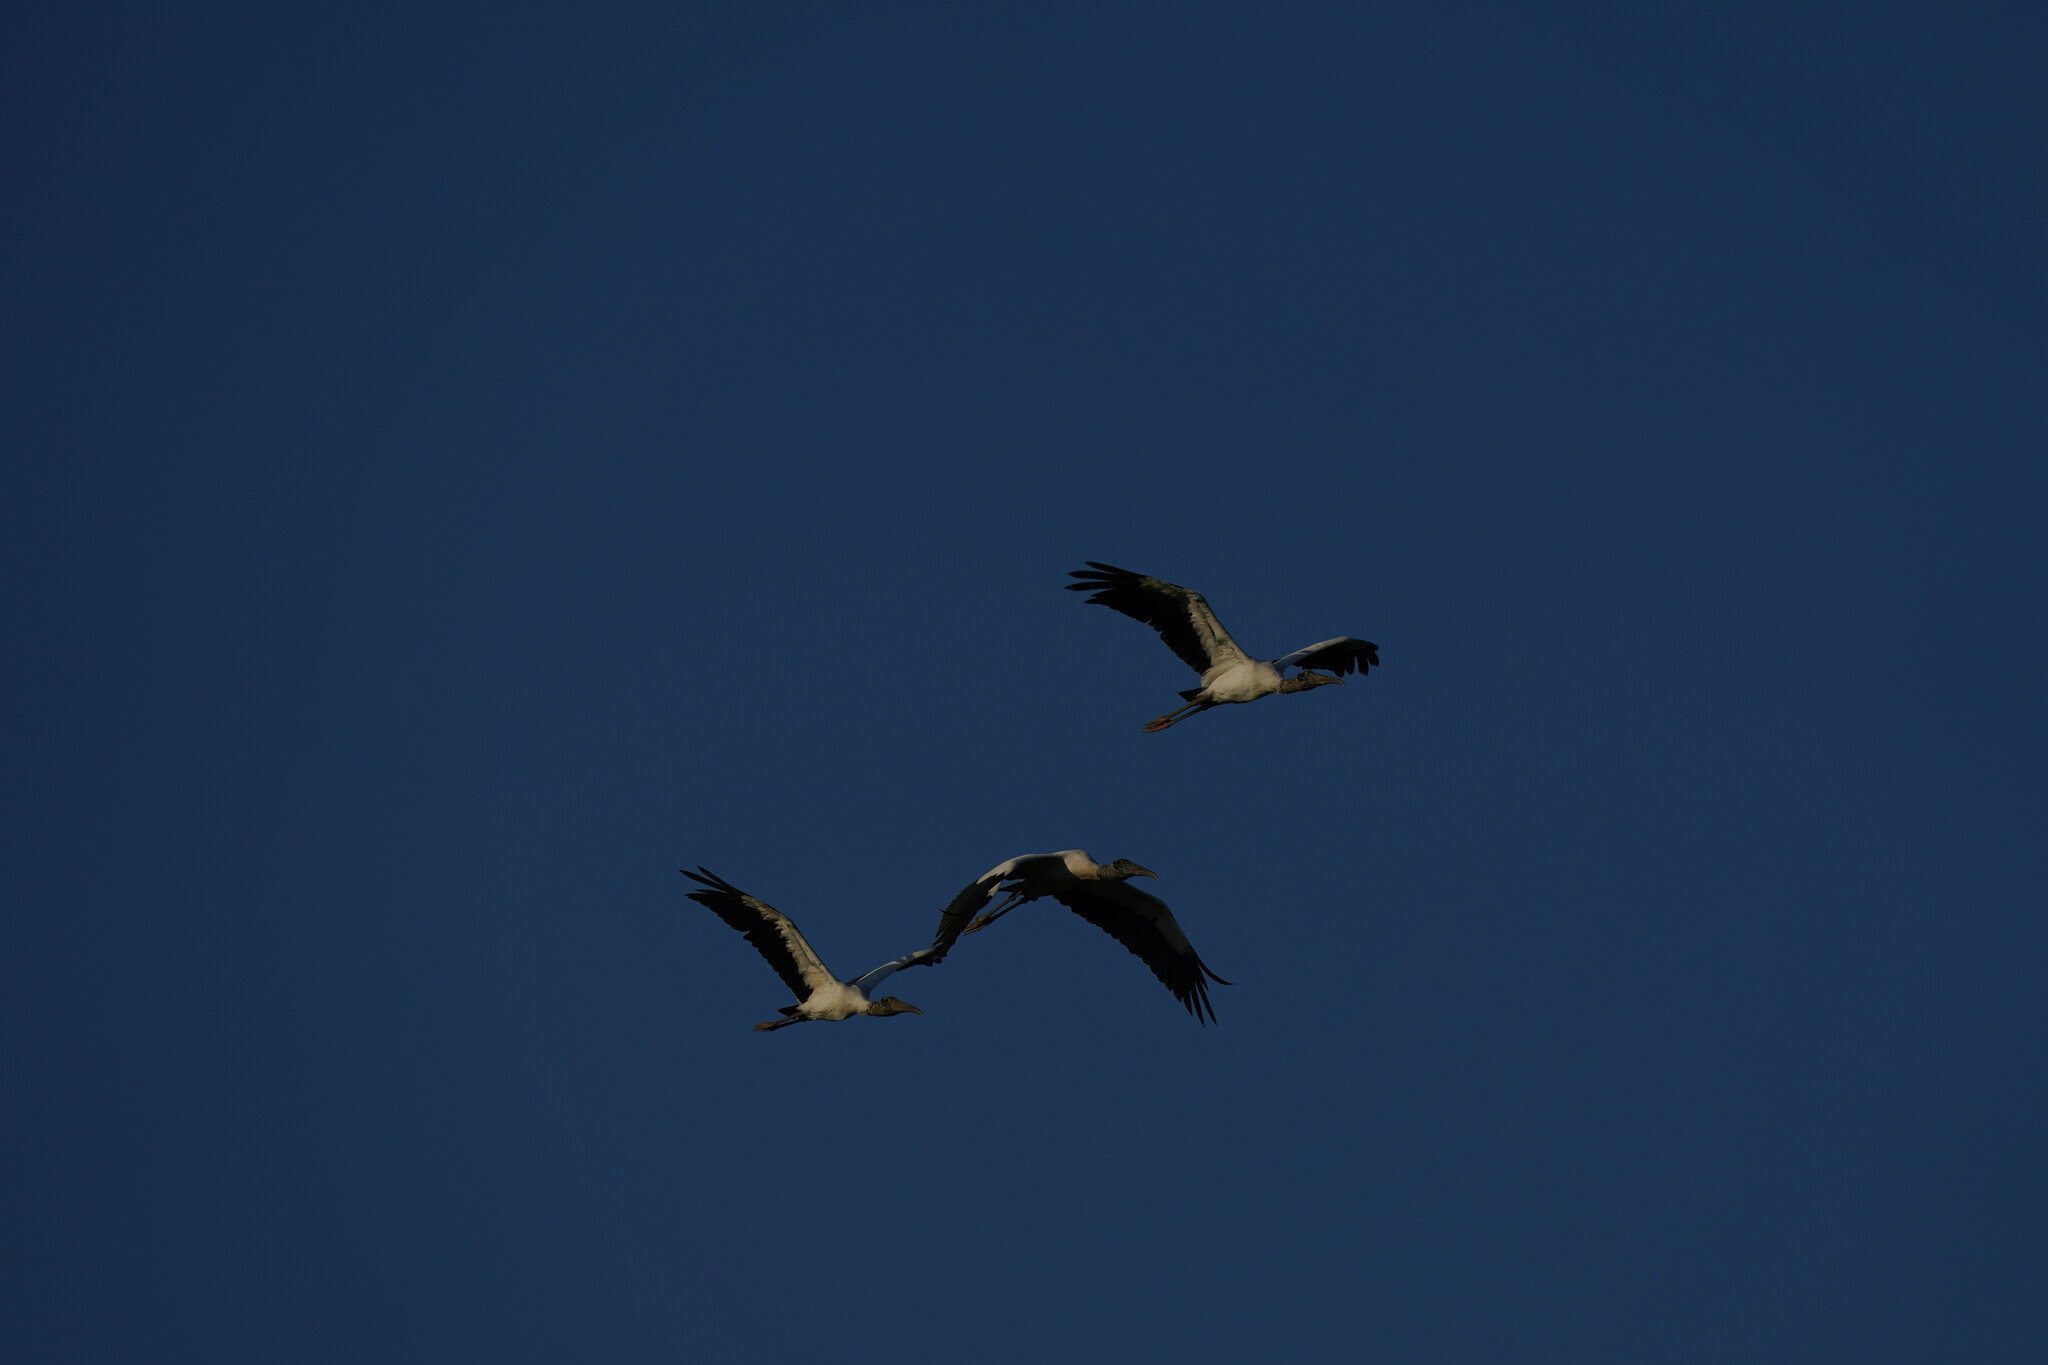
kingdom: Animalia
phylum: Chordata
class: Aves
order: Ciconiiformes
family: Ciconiidae
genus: Mycteria
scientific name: Mycteria americana
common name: Wood stork
